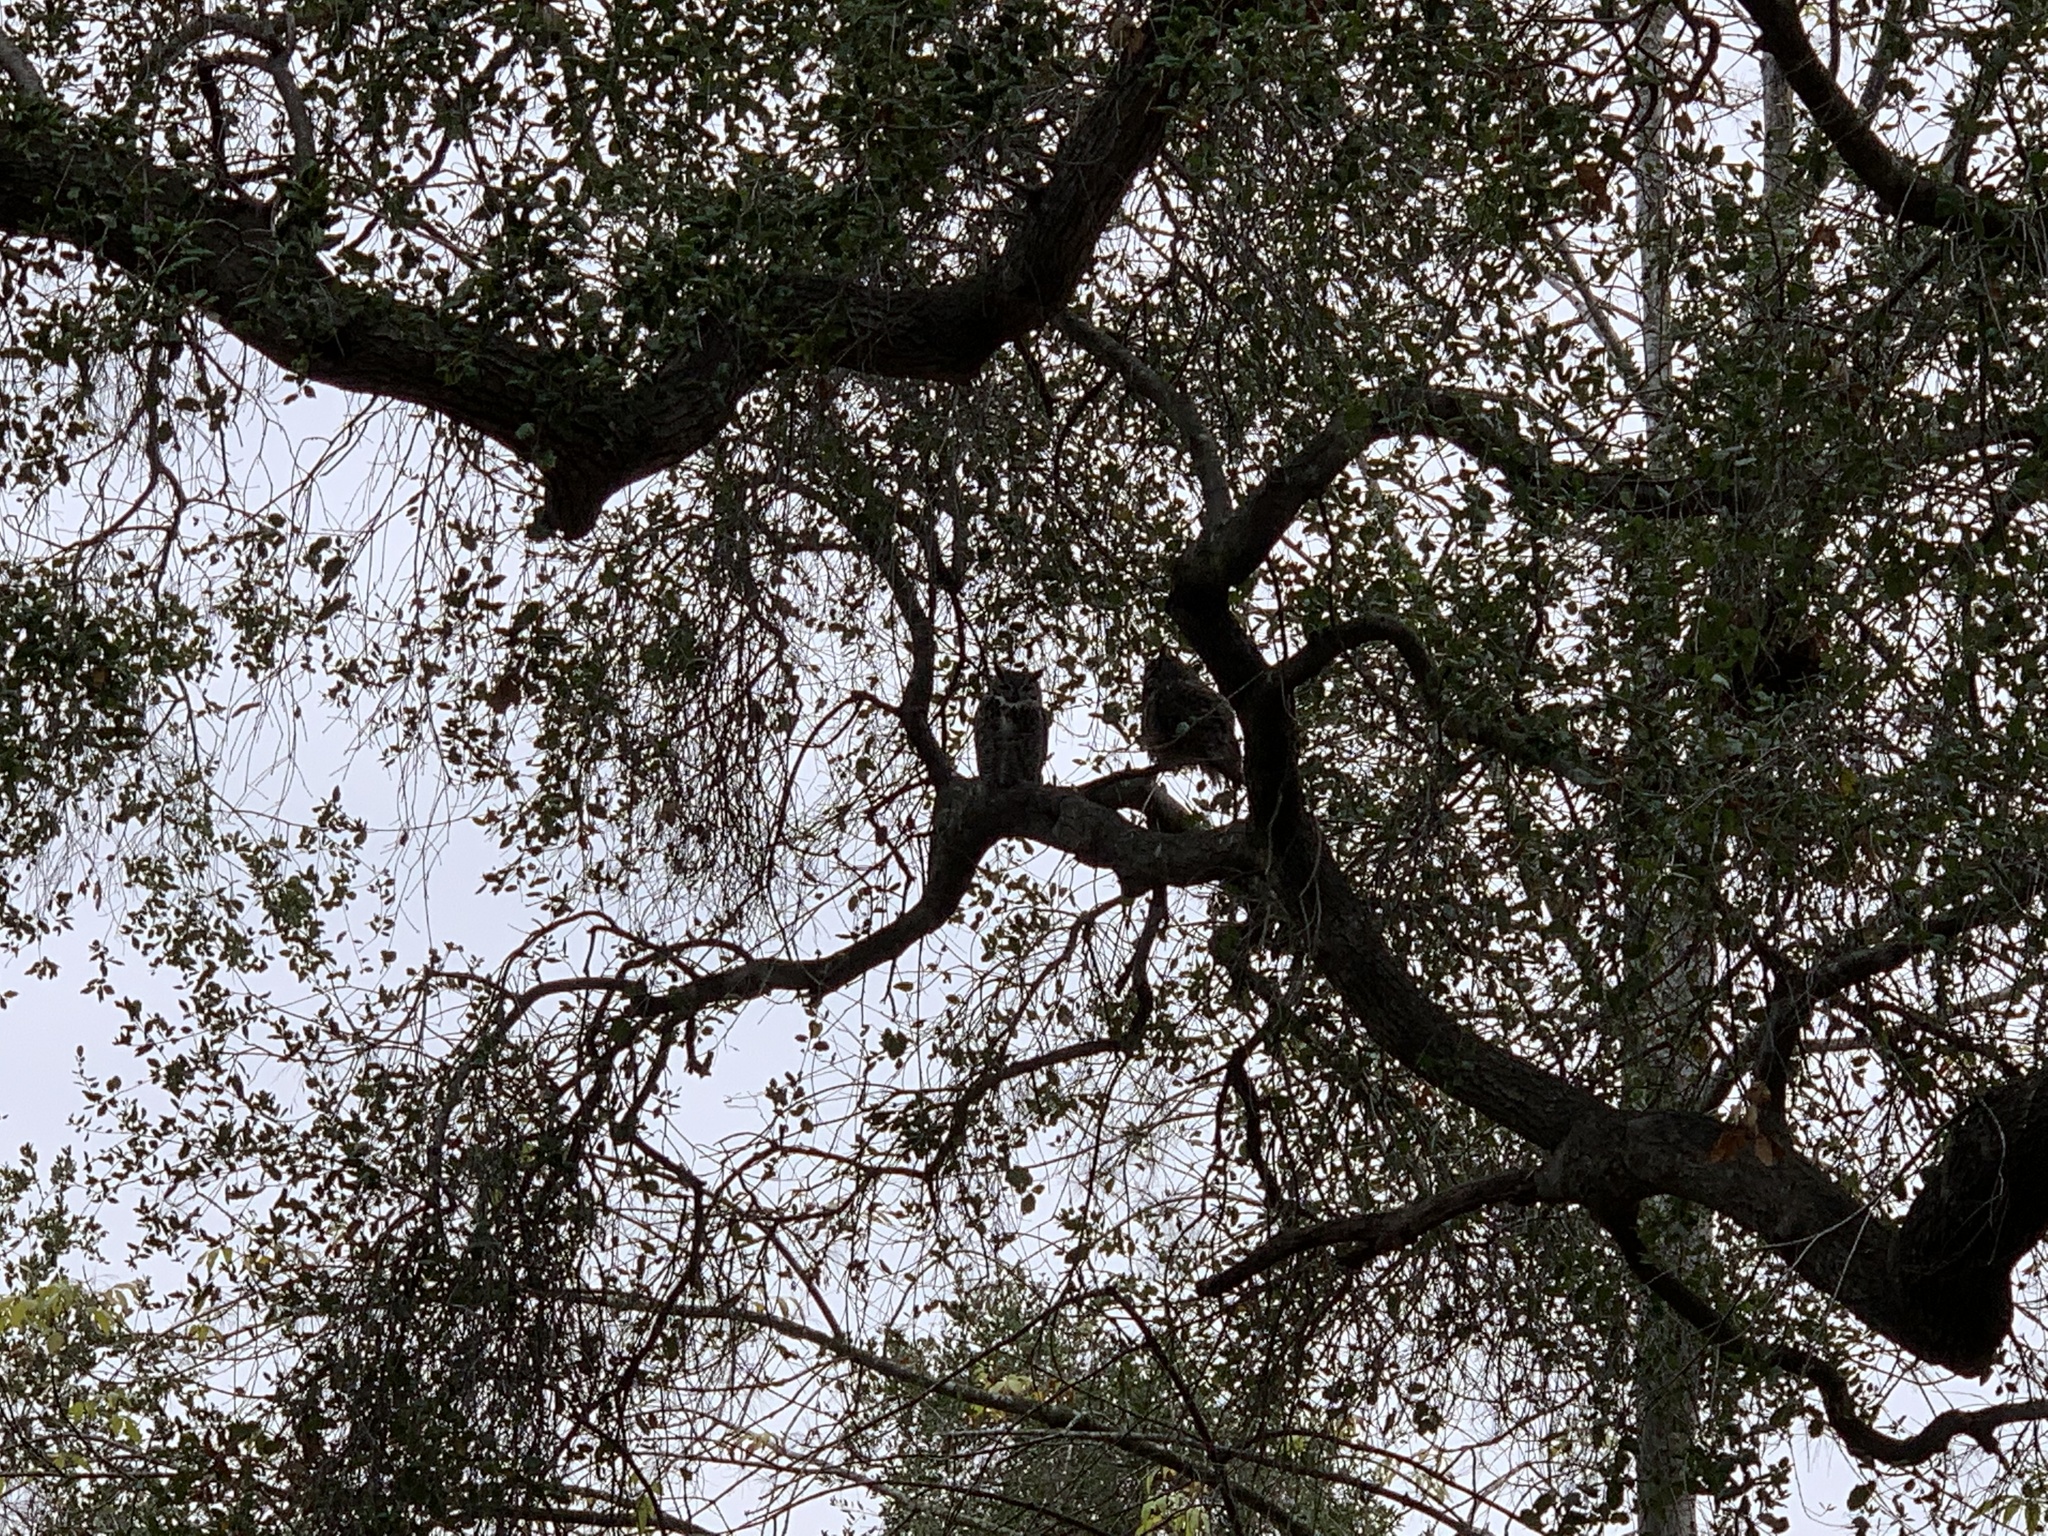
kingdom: Animalia
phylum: Chordata
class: Aves
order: Strigiformes
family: Strigidae
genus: Bubo
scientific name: Bubo virginianus
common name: Great horned owl
